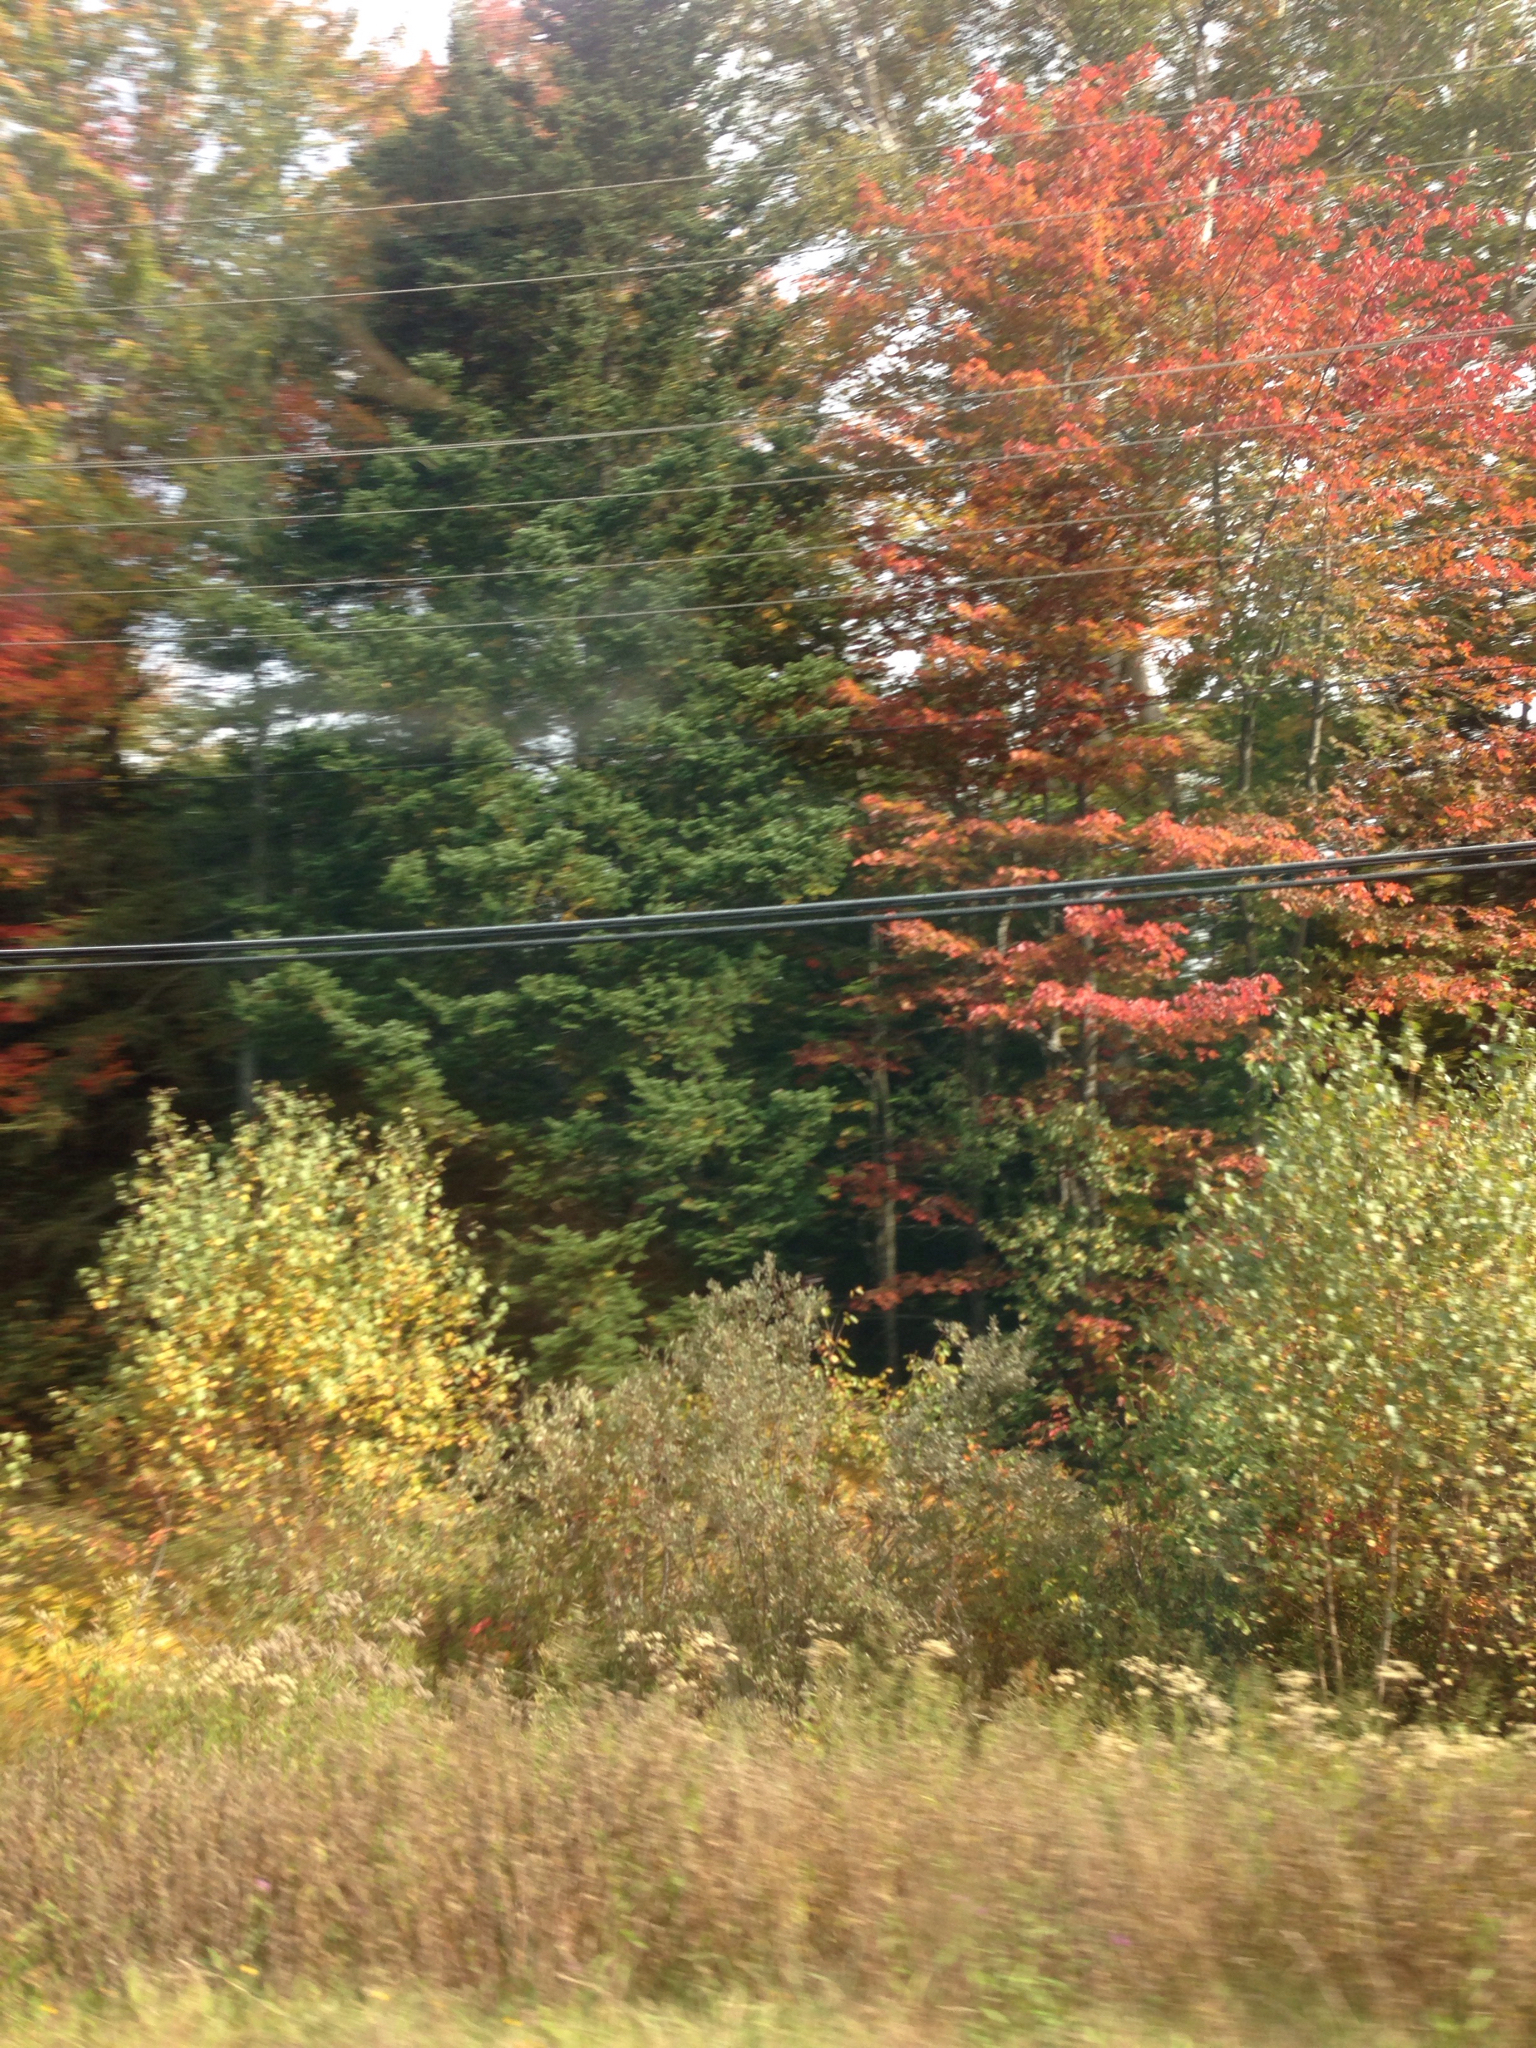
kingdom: Plantae
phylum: Tracheophyta
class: Magnoliopsida
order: Sapindales
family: Sapindaceae
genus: Acer
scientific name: Acer rubrum
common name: Red maple
